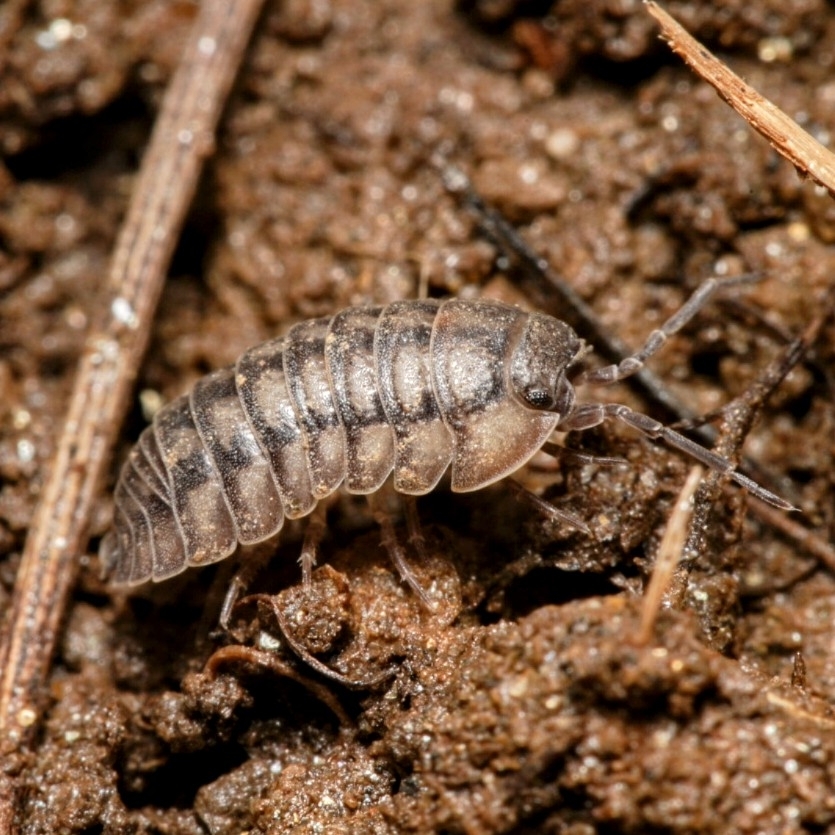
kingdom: Animalia
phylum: Arthropoda
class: Malacostraca
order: Isopoda
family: Armadillidiidae
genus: Armadillidium
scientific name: Armadillidium nasatum
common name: Isopod
